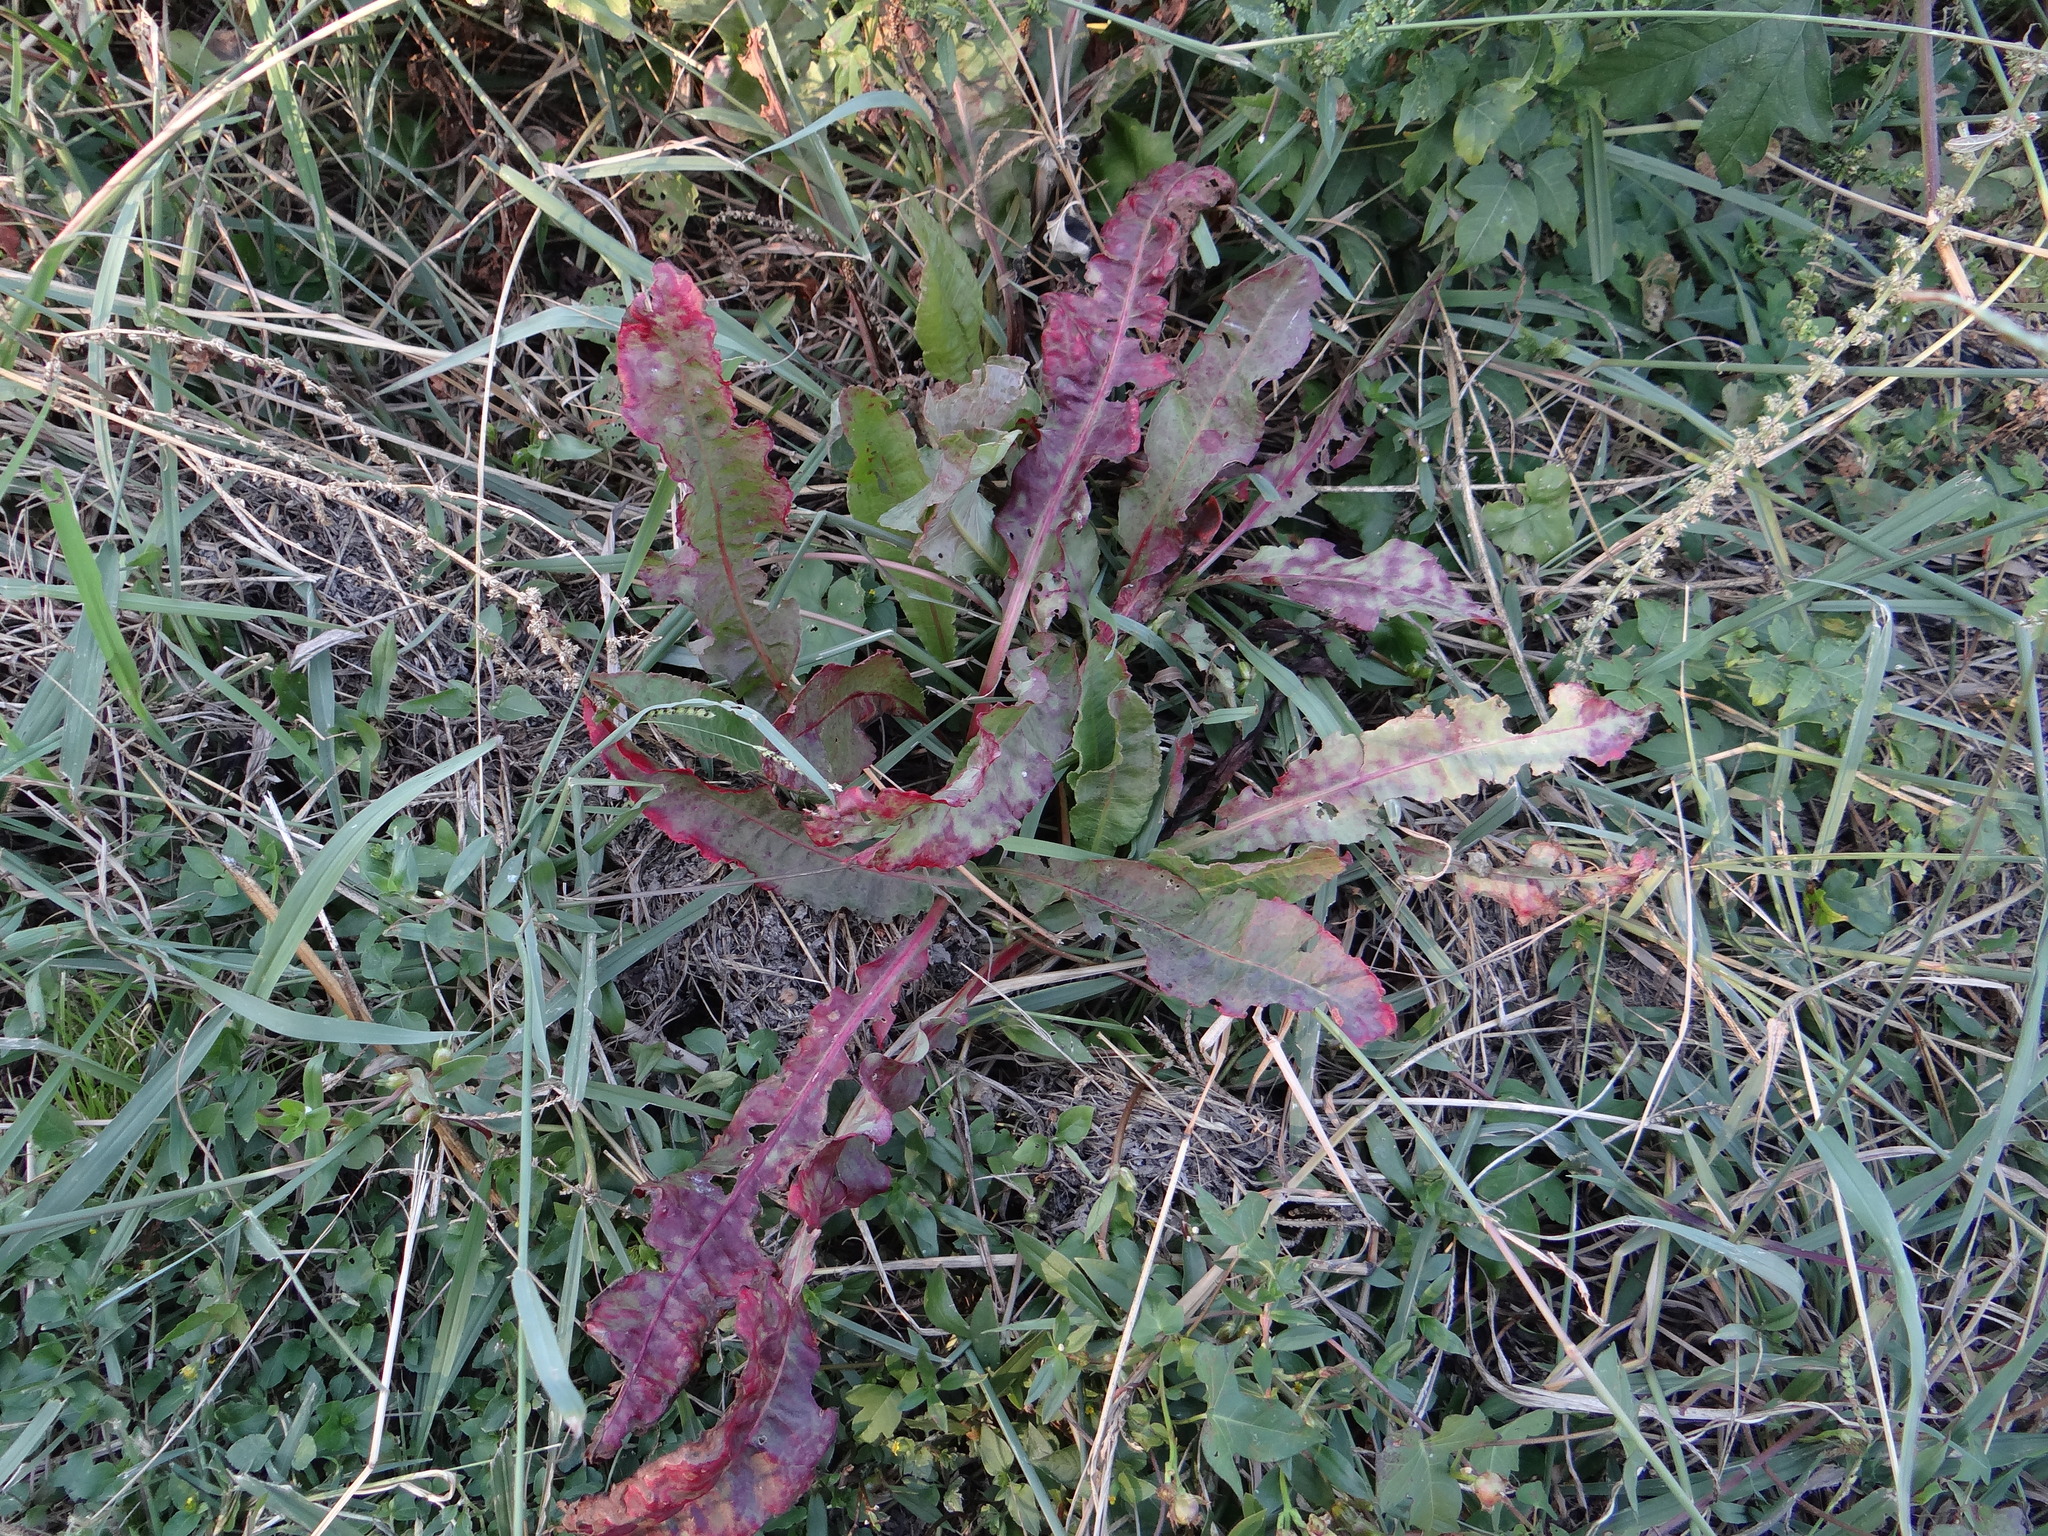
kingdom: Plantae
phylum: Tracheophyta
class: Magnoliopsida
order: Caryophyllales
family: Polygonaceae
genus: Rumex
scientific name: Rumex crispus
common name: Curled dock
